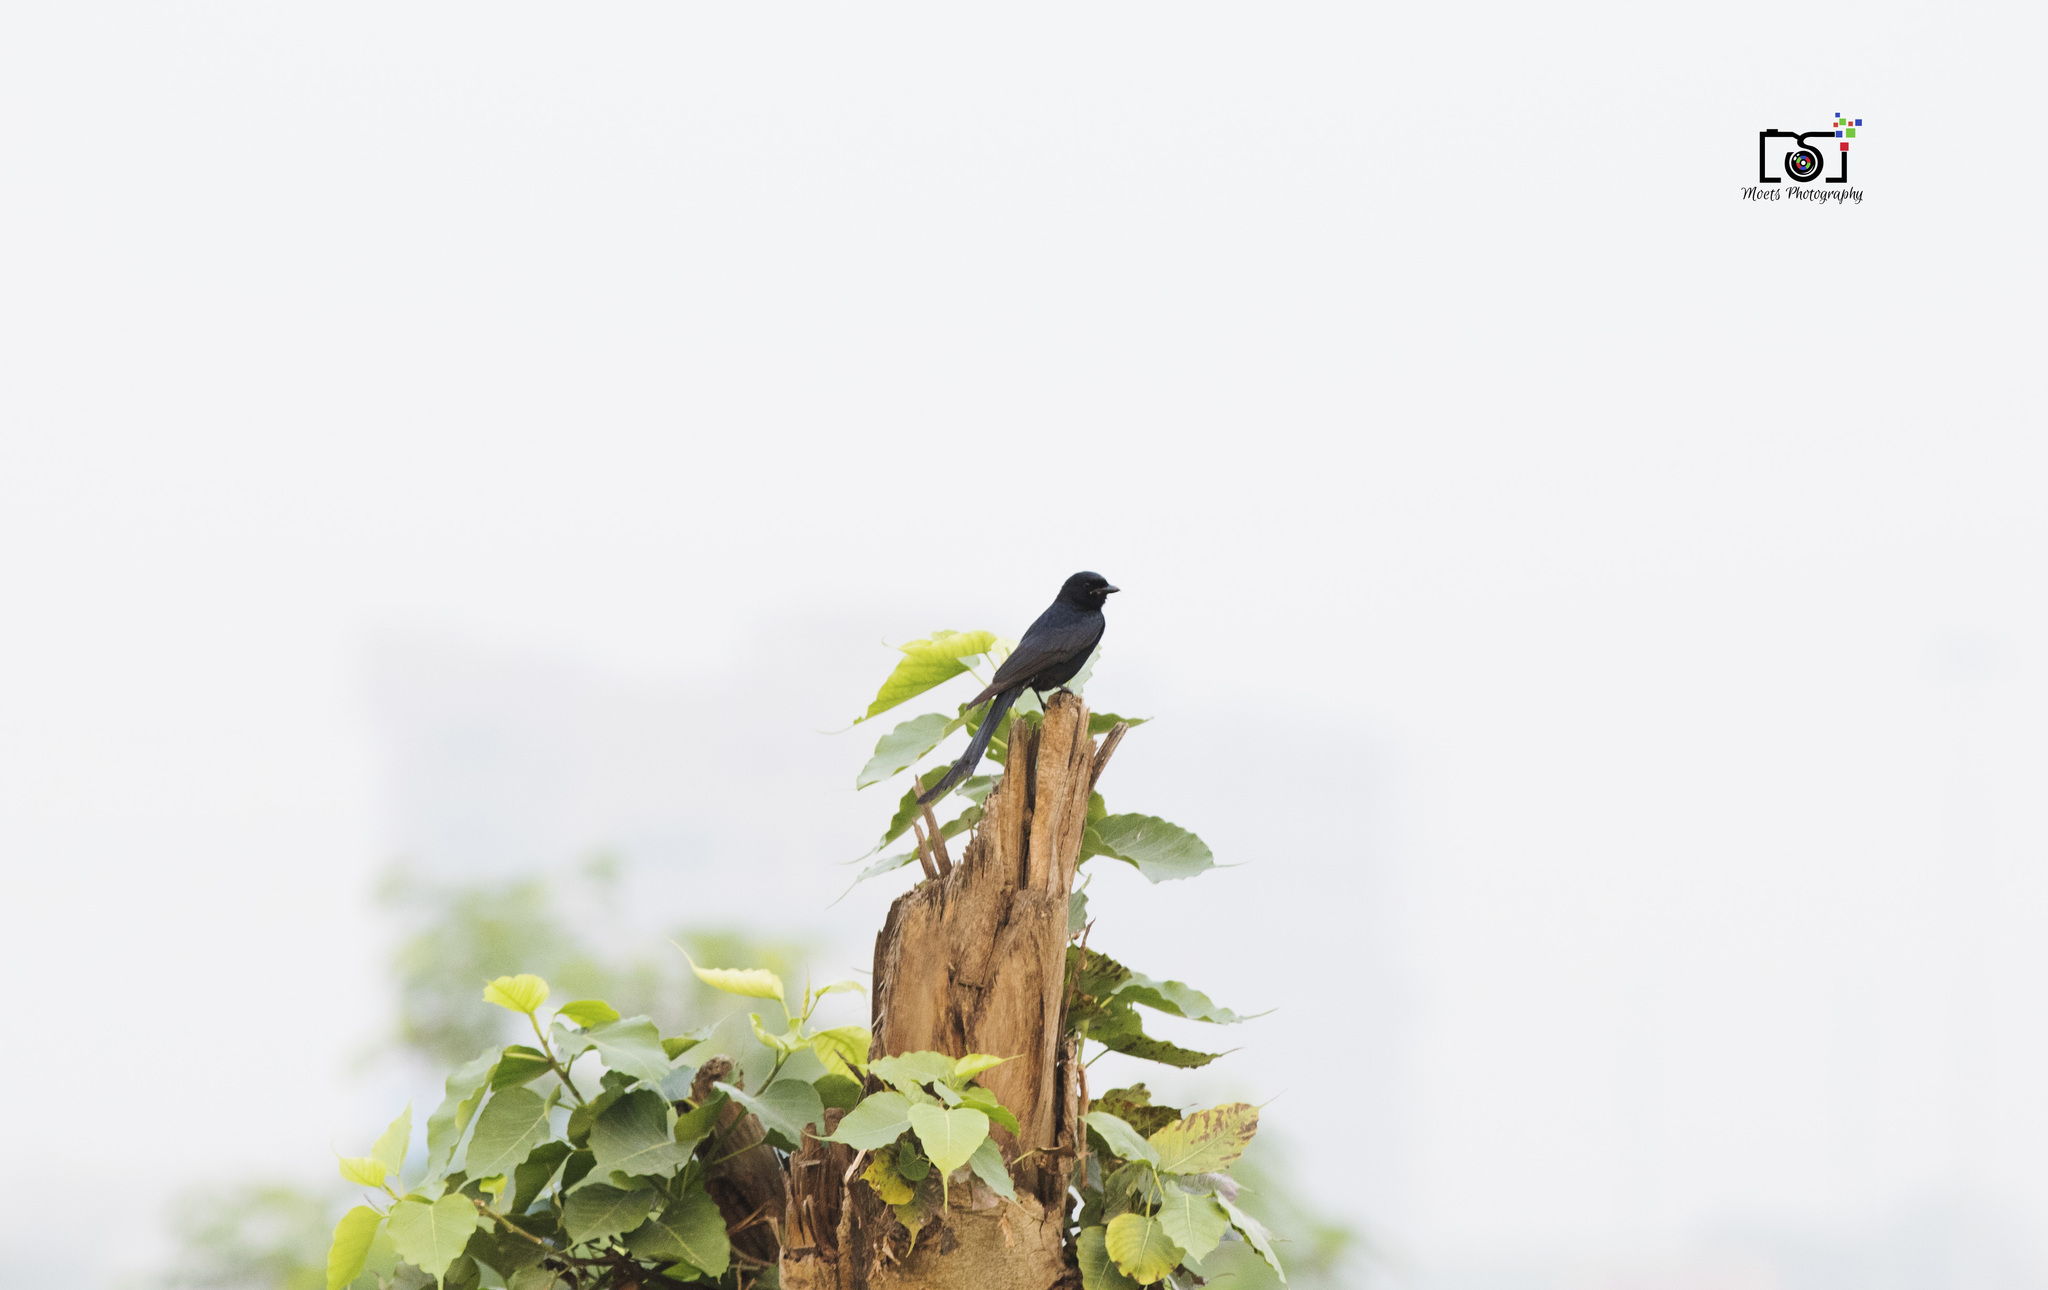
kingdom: Animalia
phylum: Chordata
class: Aves
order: Passeriformes
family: Dicruridae
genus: Dicrurus
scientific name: Dicrurus macrocercus
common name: Black drongo
